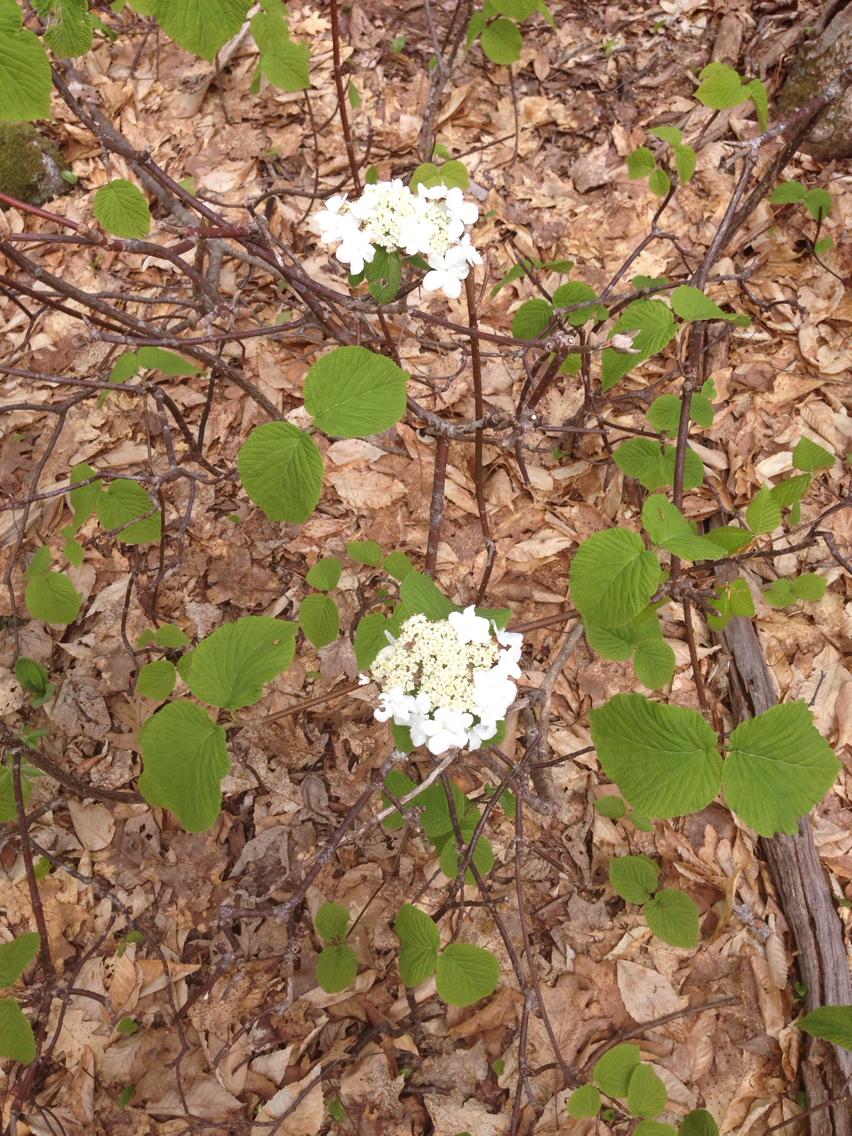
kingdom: Plantae
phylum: Tracheophyta
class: Magnoliopsida
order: Dipsacales
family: Viburnaceae
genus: Viburnum
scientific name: Viburnum lantanoides
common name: Hobblebush
